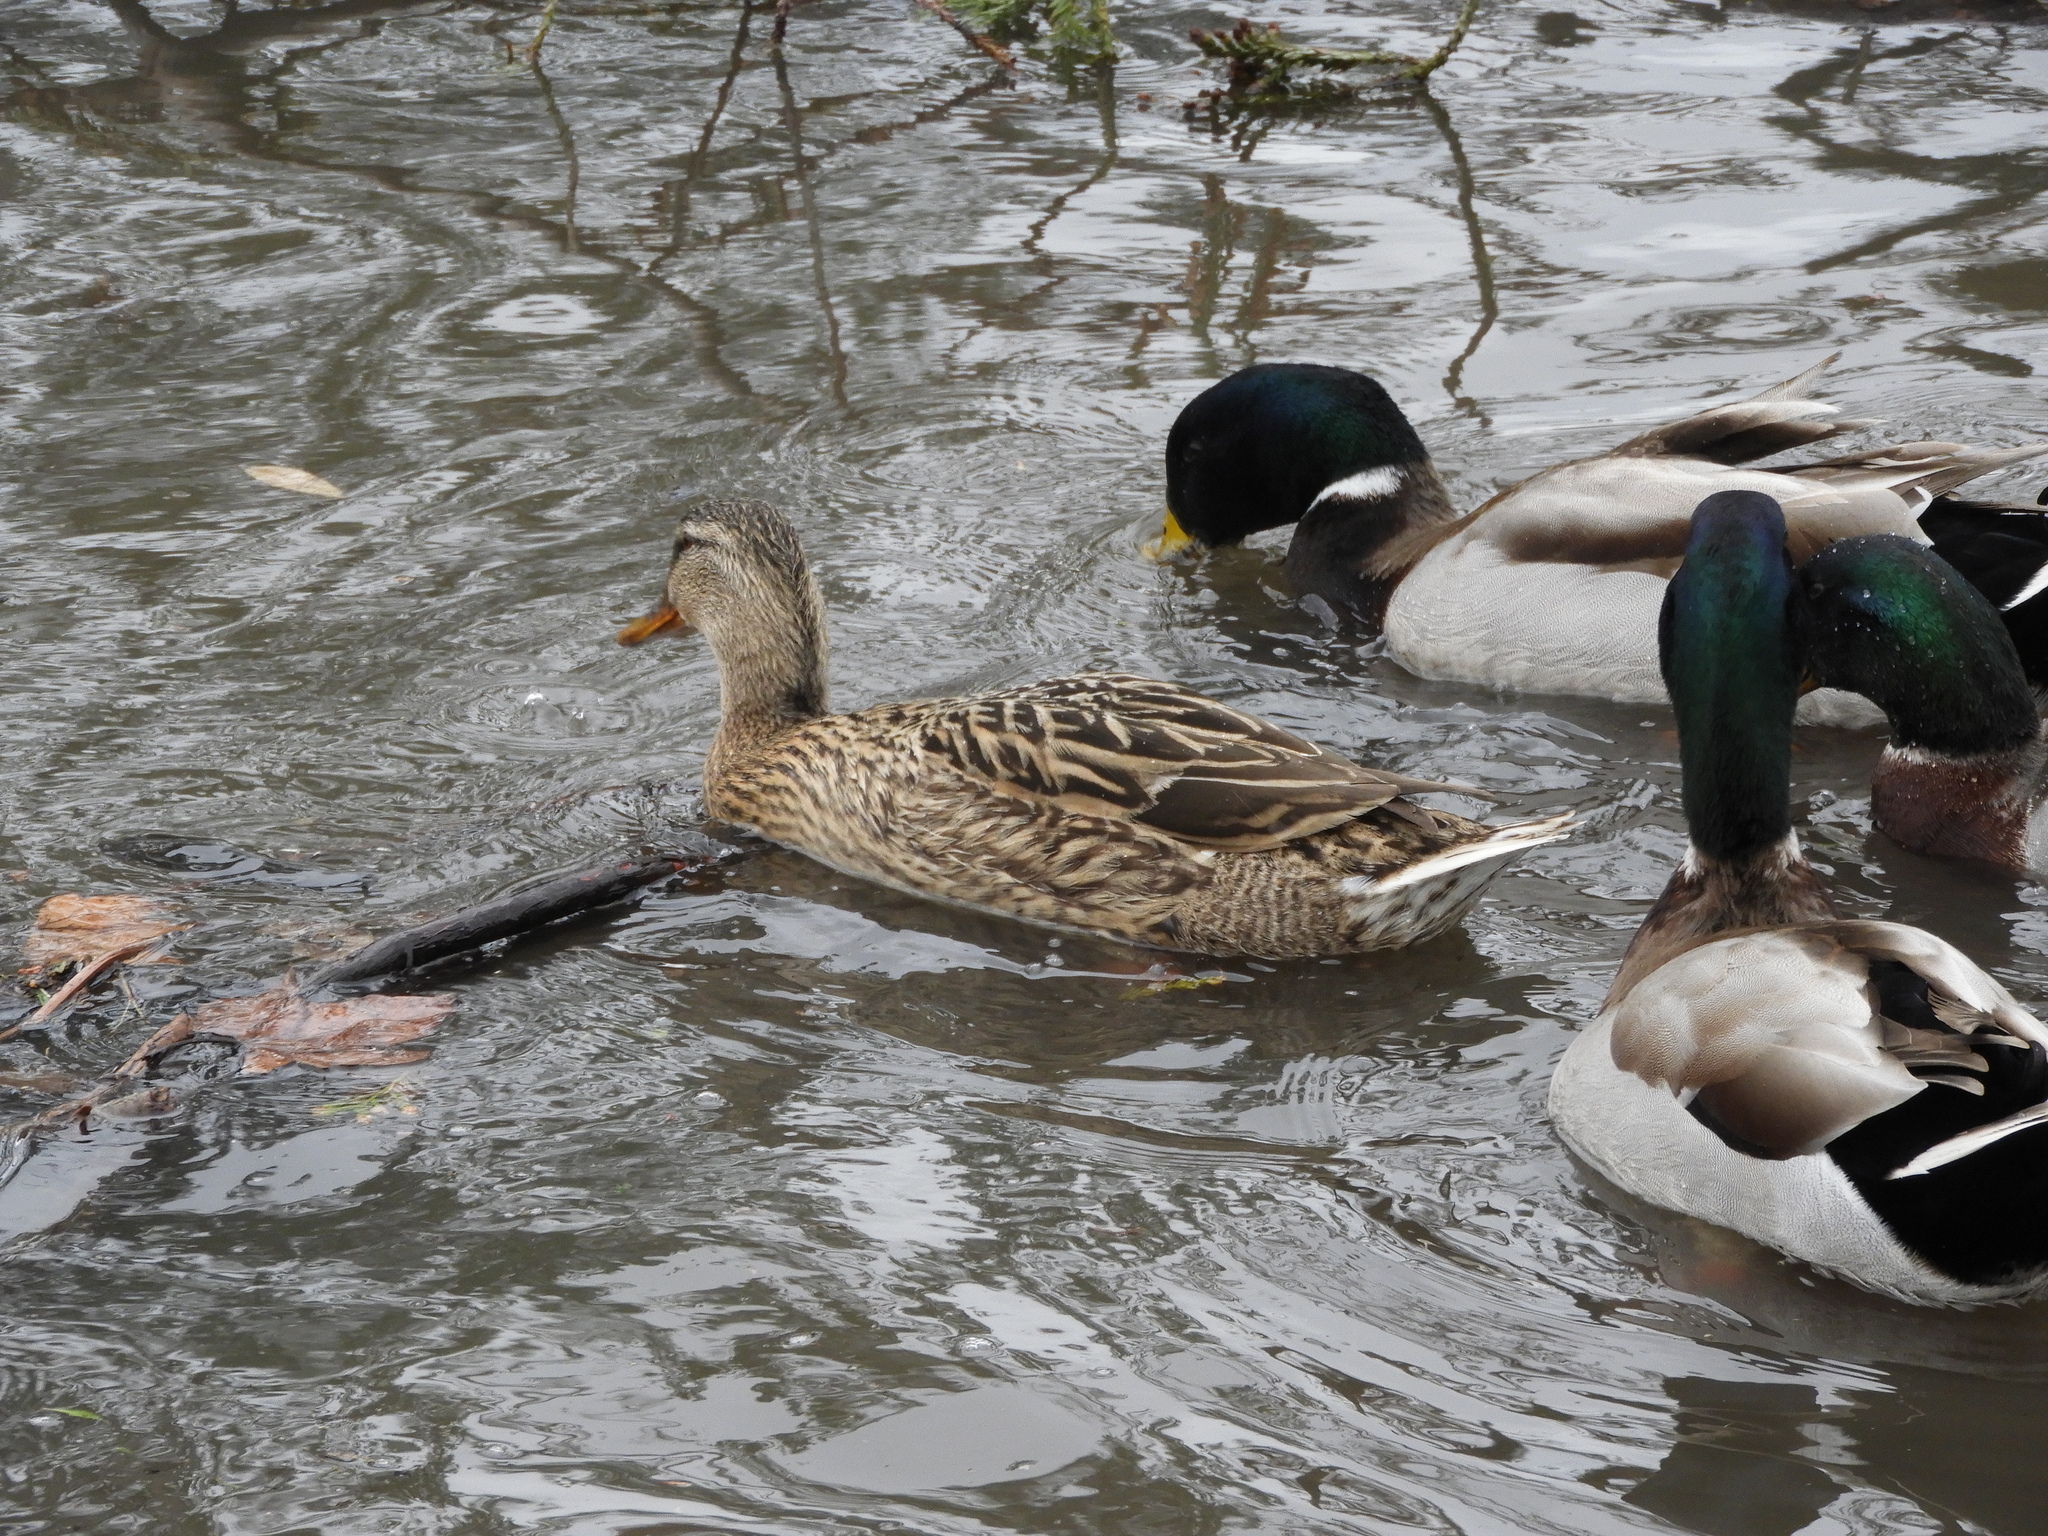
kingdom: Animalia
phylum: Chordata
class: Aves
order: Anseriformes
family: Anatidae
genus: Anas
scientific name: Anas platyrhynchos
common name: Mallard
